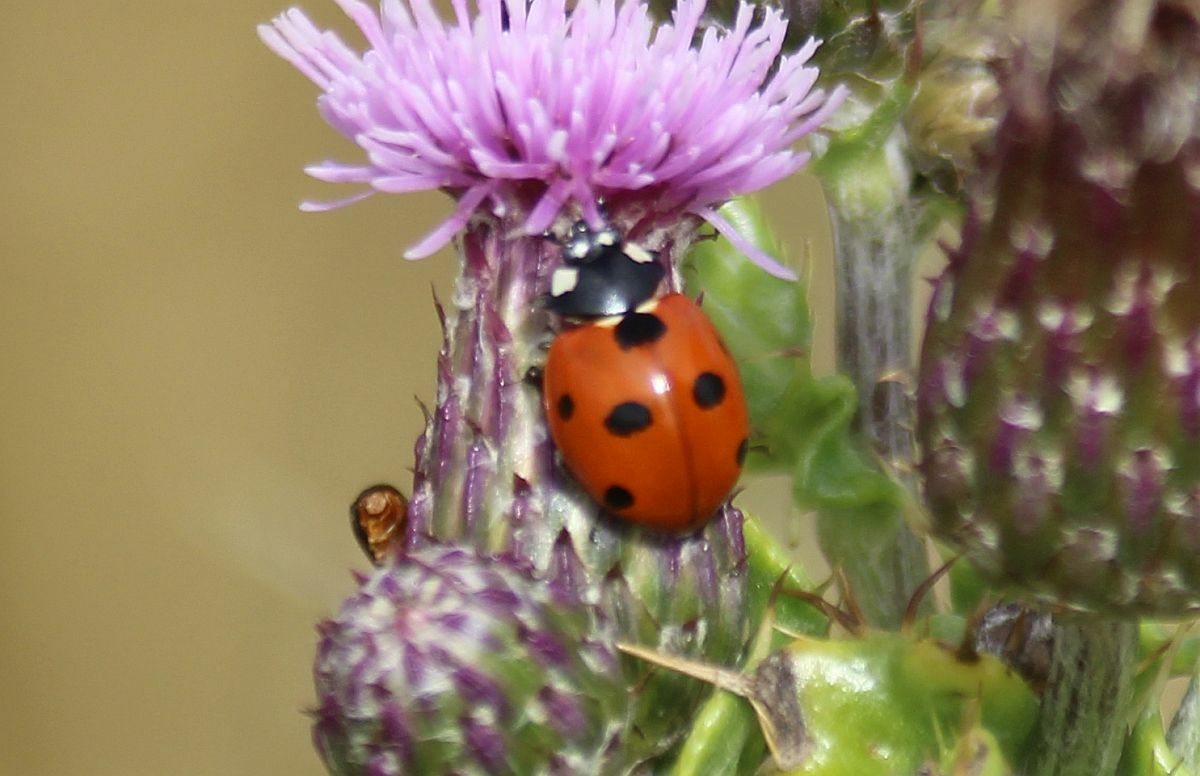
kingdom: Animalia
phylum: Arthropoda
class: Insecta
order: Coleoptera
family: Coccinellidae
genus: Coccinella
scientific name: Coccinella septempunctata
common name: Sevenspotted lady beetle
